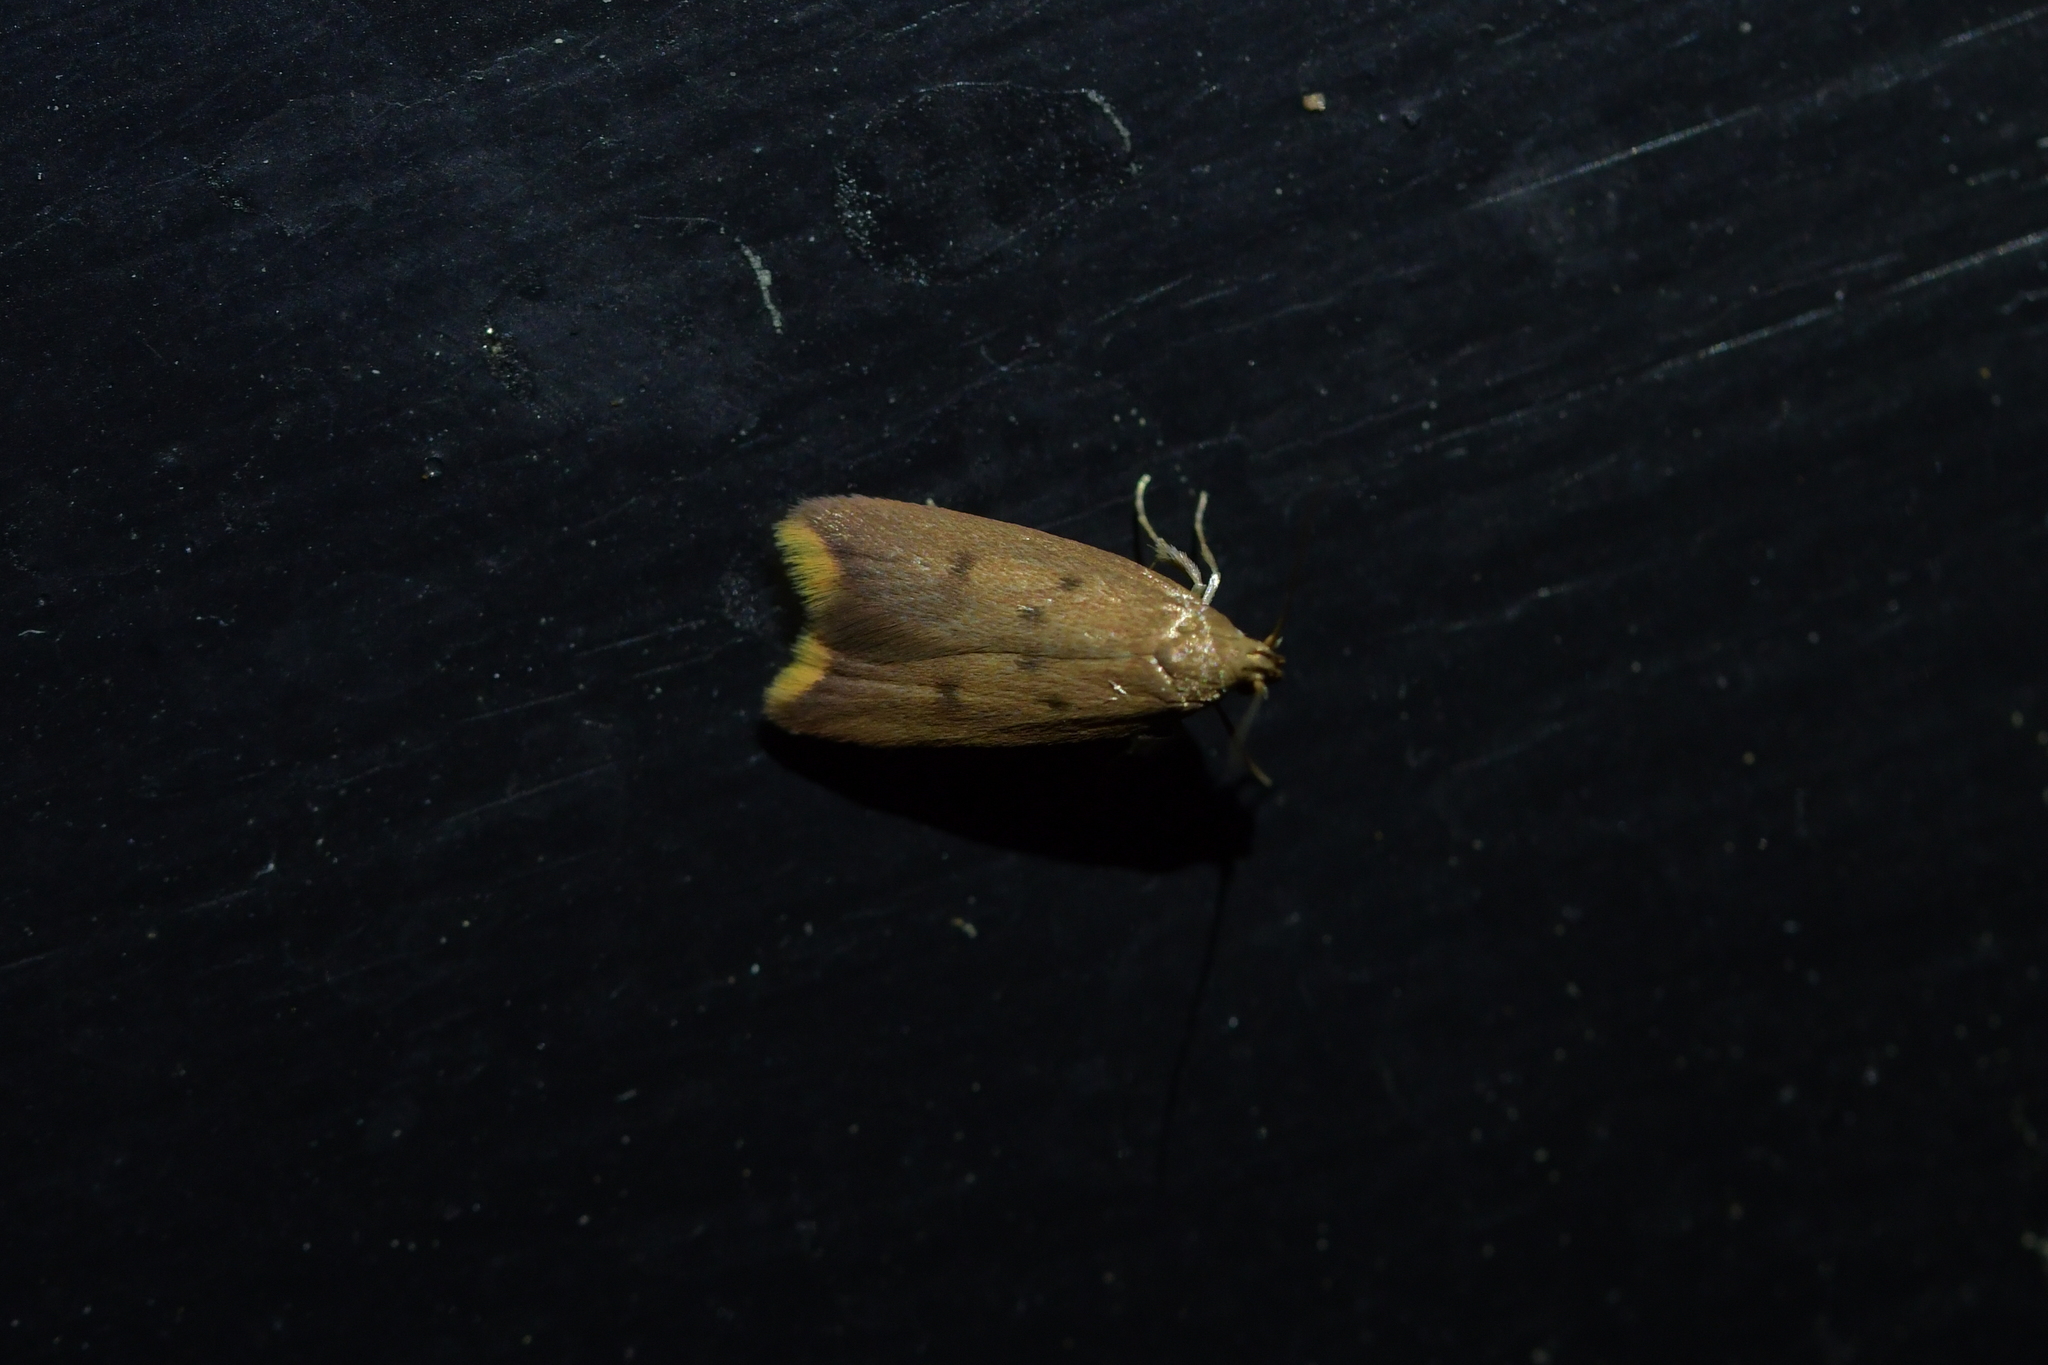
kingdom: Animalia
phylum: Arthropoda
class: Insecta
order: Lepidoptera
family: Oecophoridae
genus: Tachystola
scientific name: Tachystola acroxantha
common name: Ruddy streak
